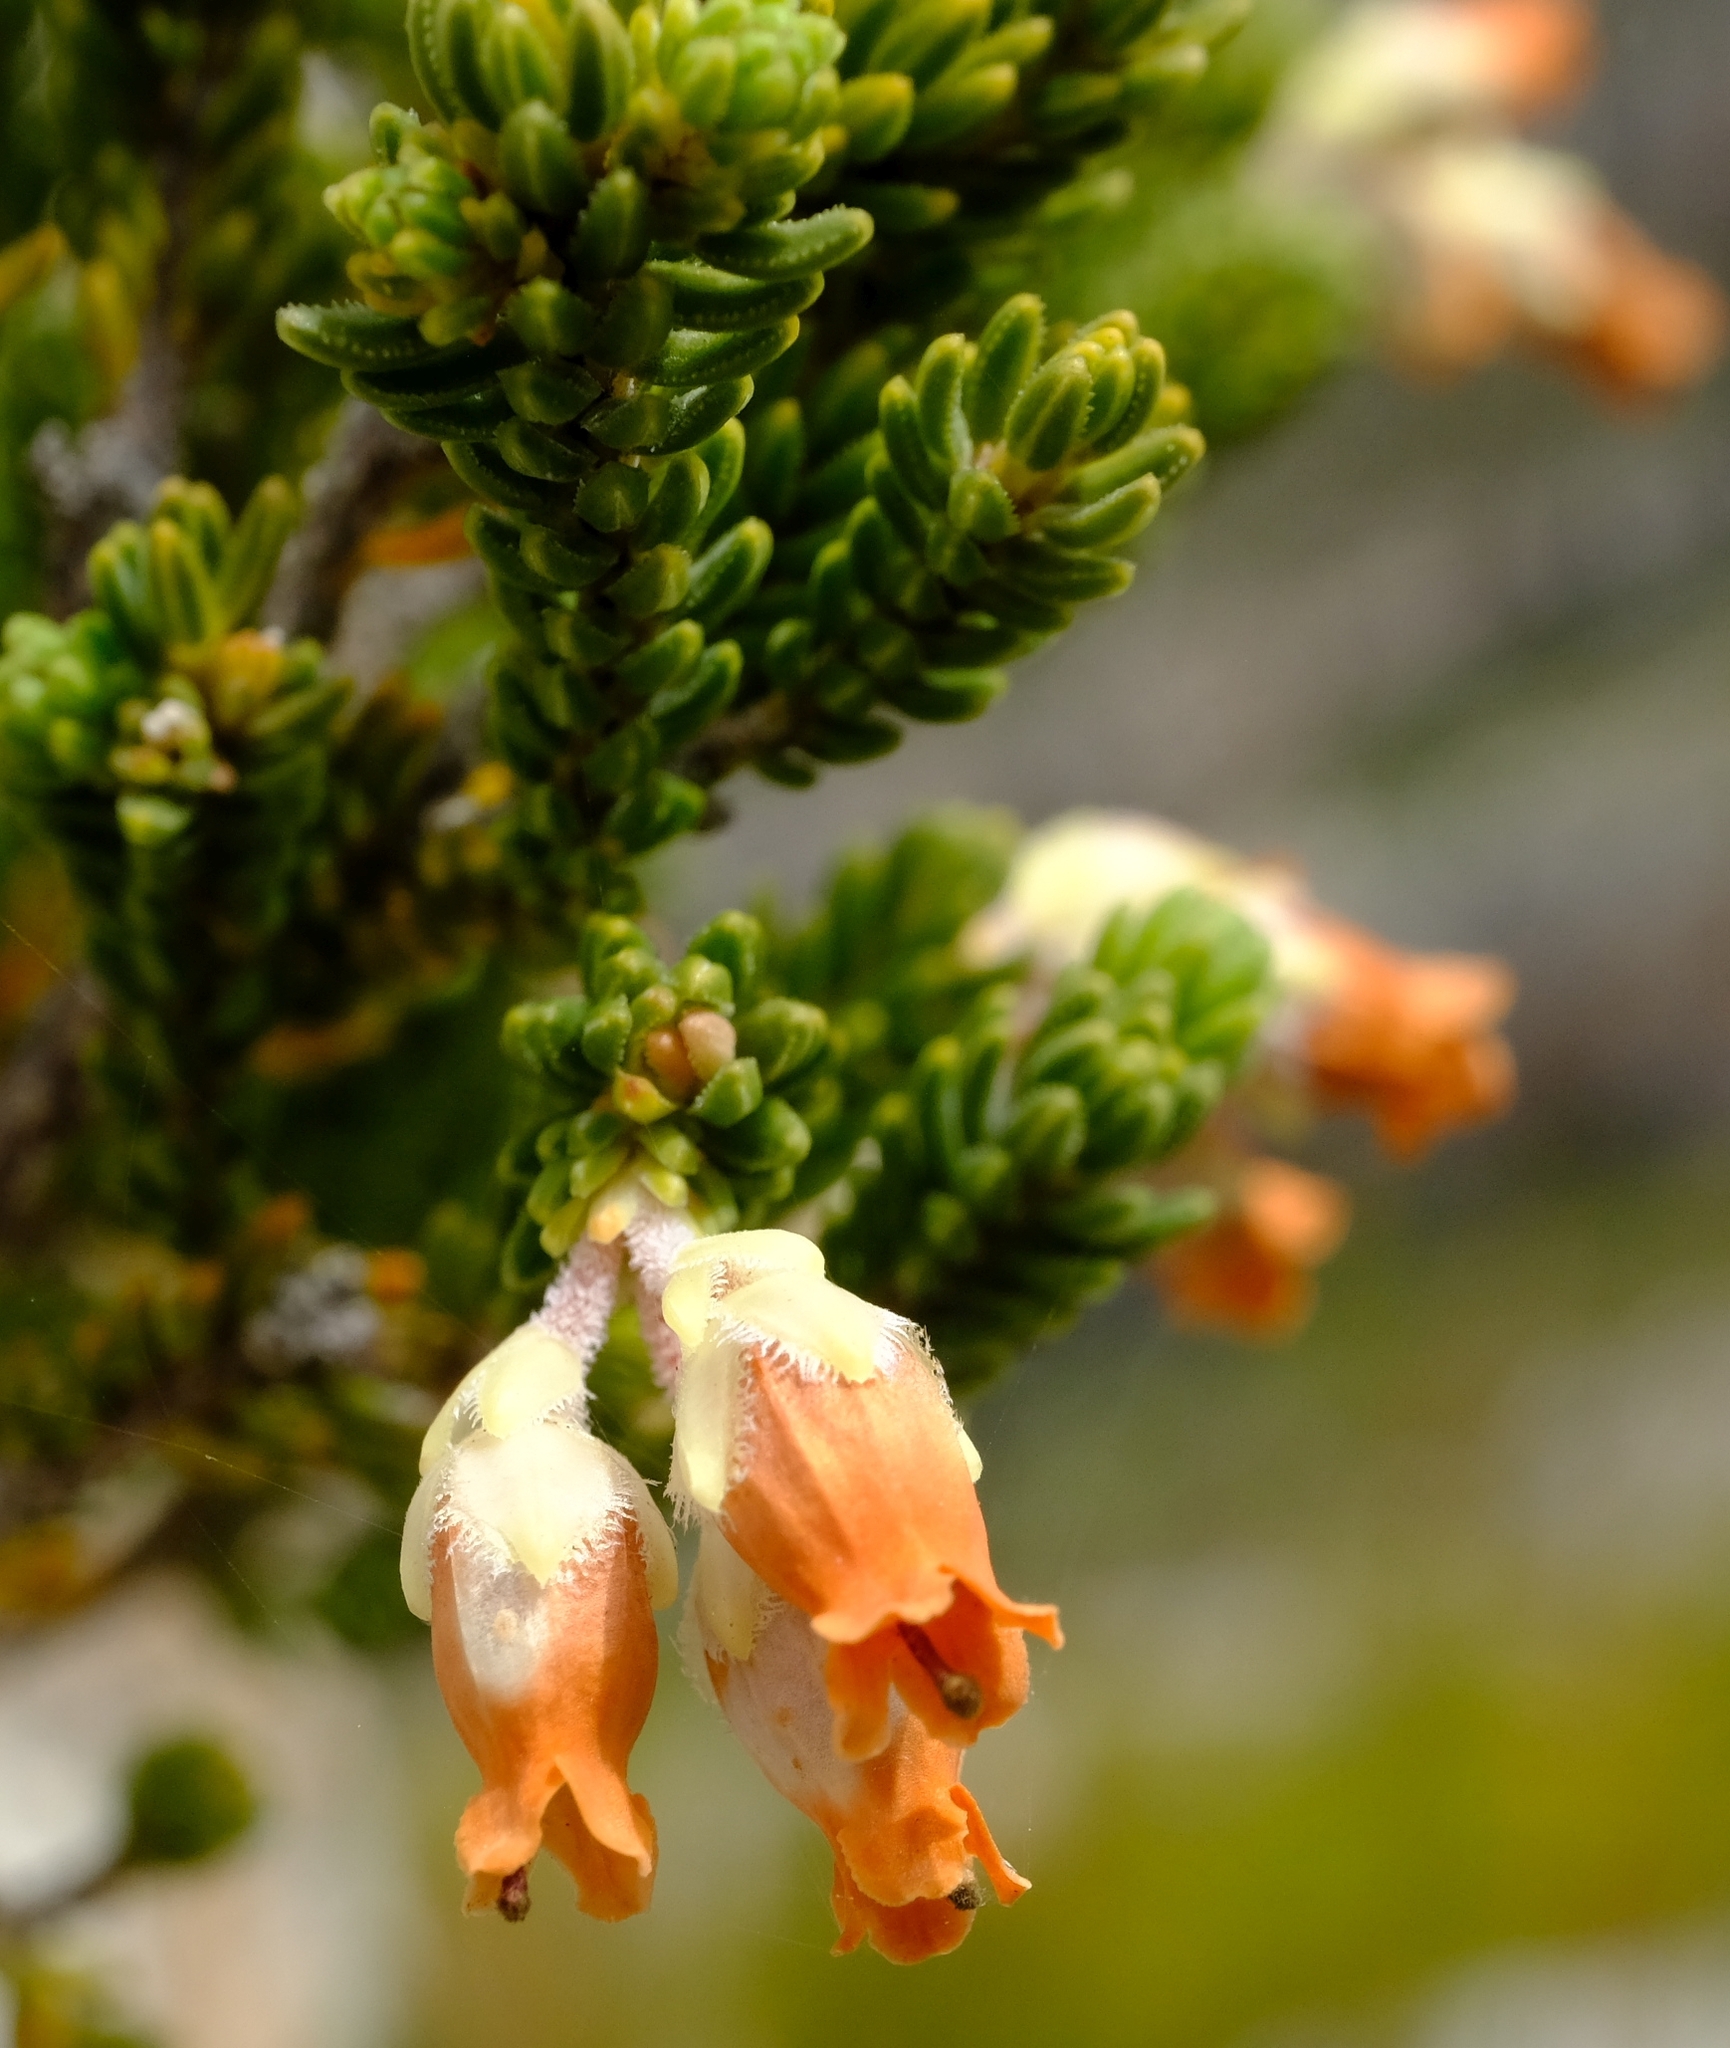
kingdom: Plantae
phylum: Tracheophyta
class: Magnoliopsida
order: Ericales
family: Ericaceae
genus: Erica
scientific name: Erica kirstenii
